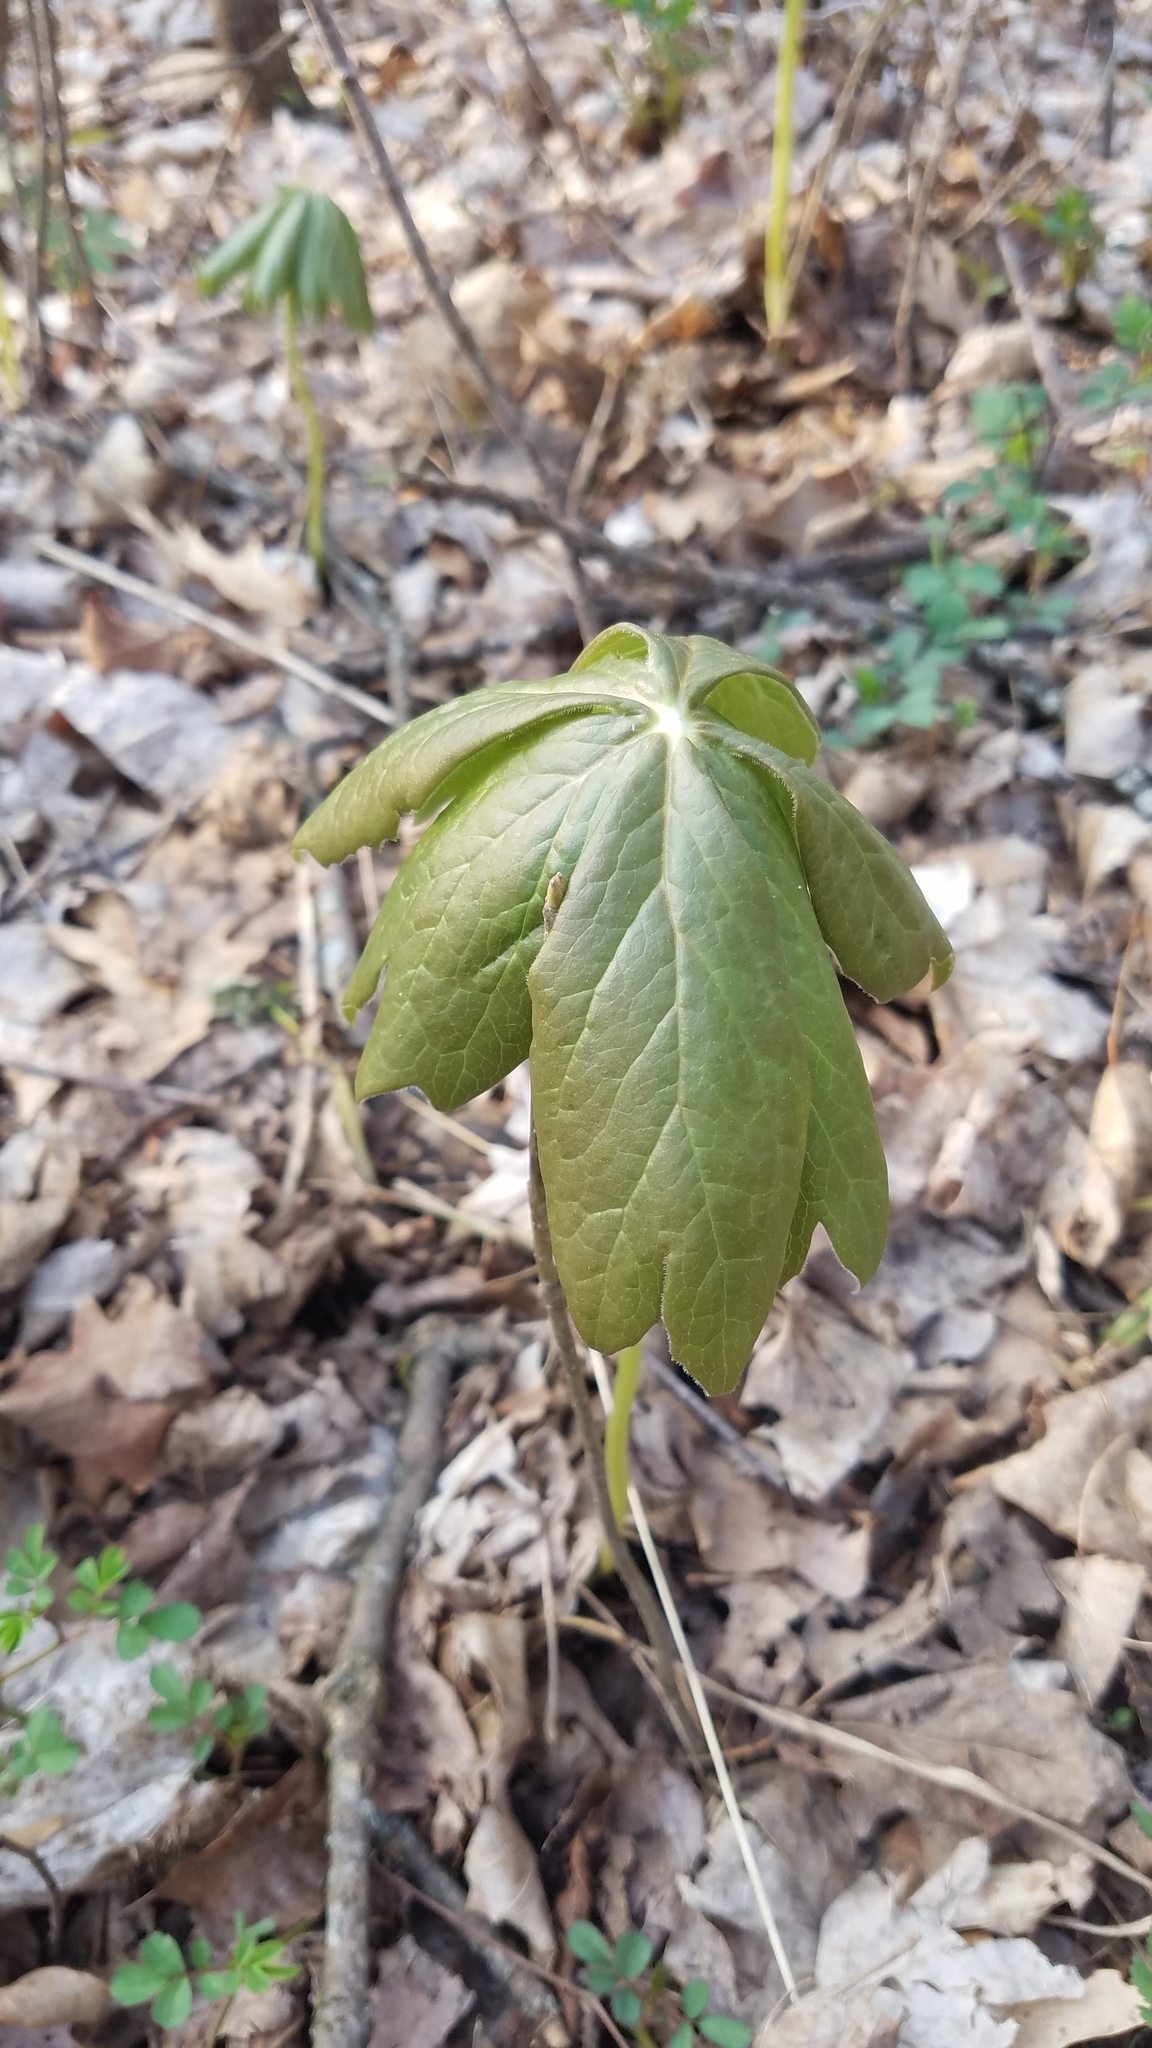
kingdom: Plantae
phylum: Tracheophyta
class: Magnoliopsida
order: Ranunculales
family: Berberidaceae
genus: Podophyllum
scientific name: Podophyllum peltatum
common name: Wild mandrake
